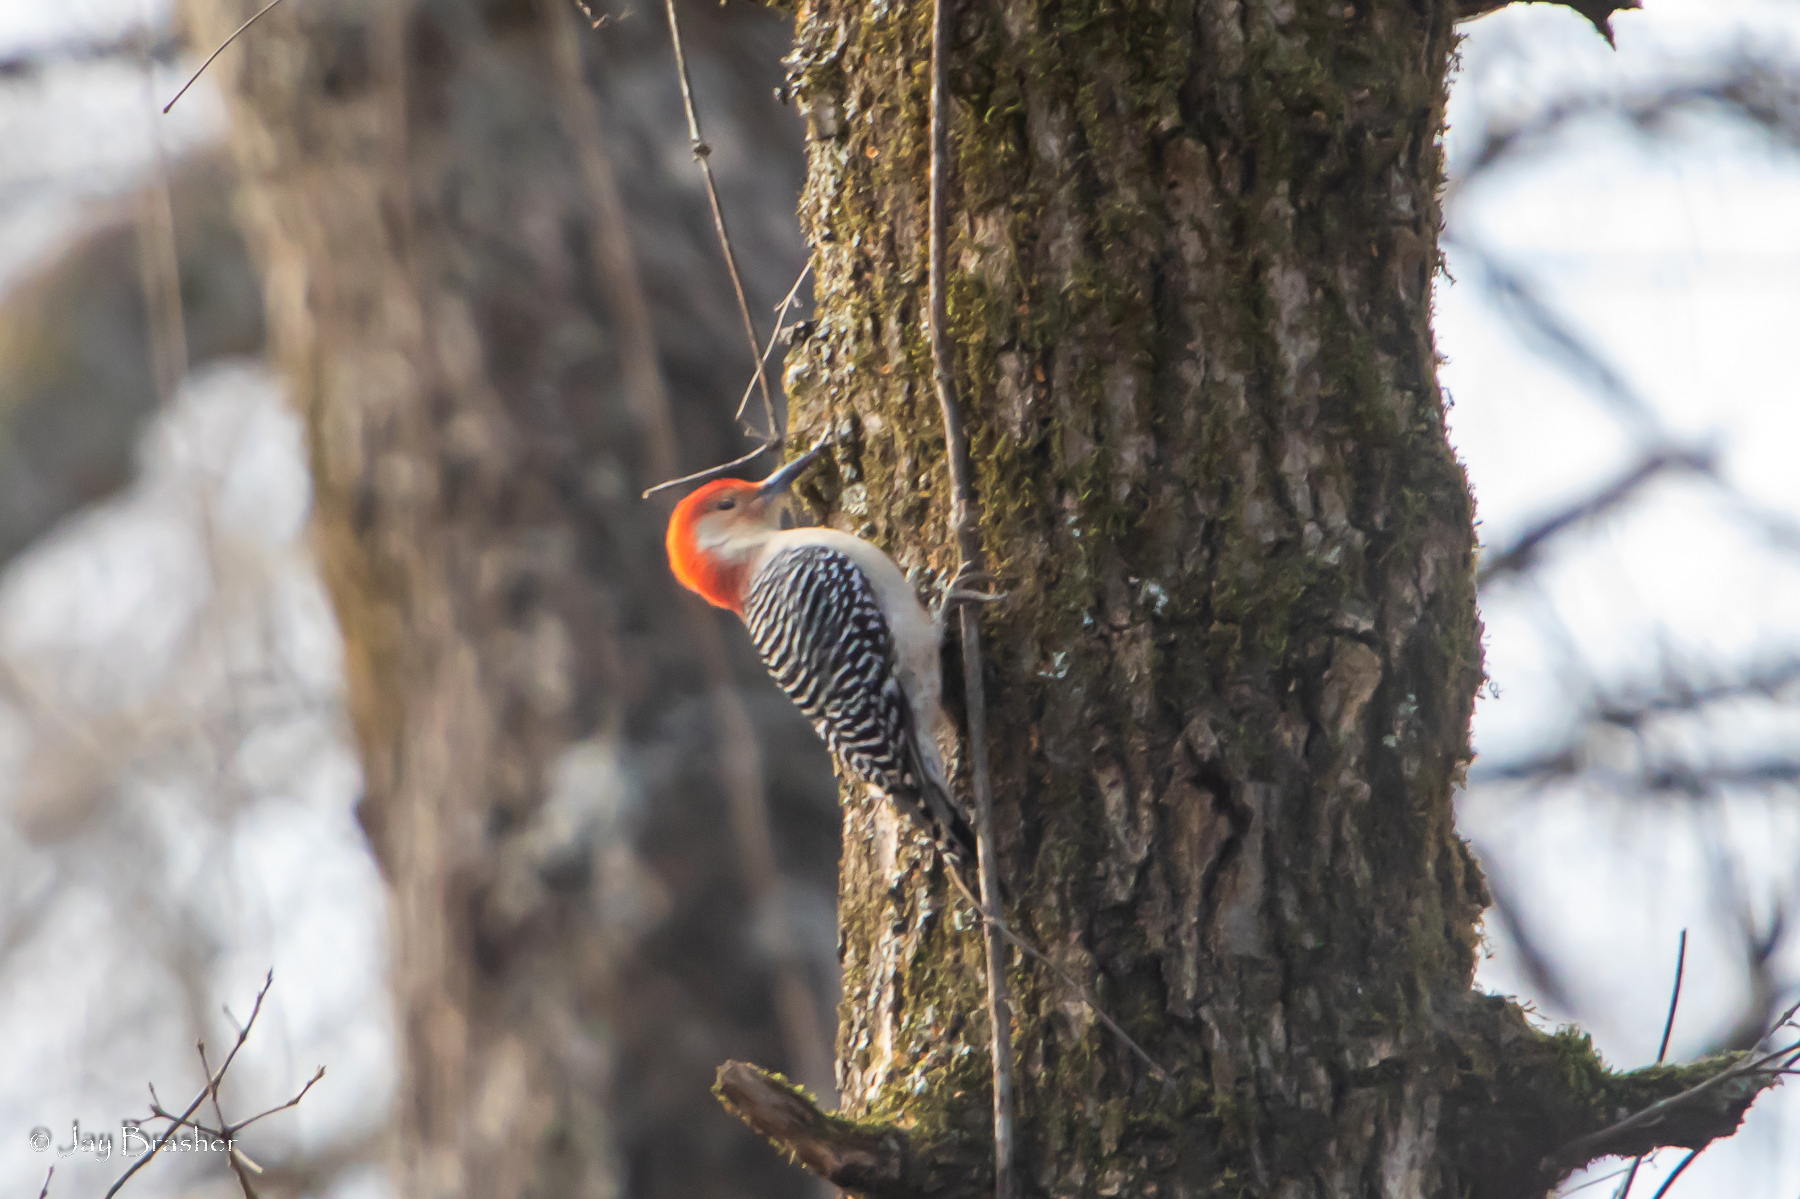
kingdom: Animalia
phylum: Chordata
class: Aves
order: Piciformes
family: Picidae
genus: Melanerpes
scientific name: Melanerpes carolinus
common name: Red-bellied woodpecker
